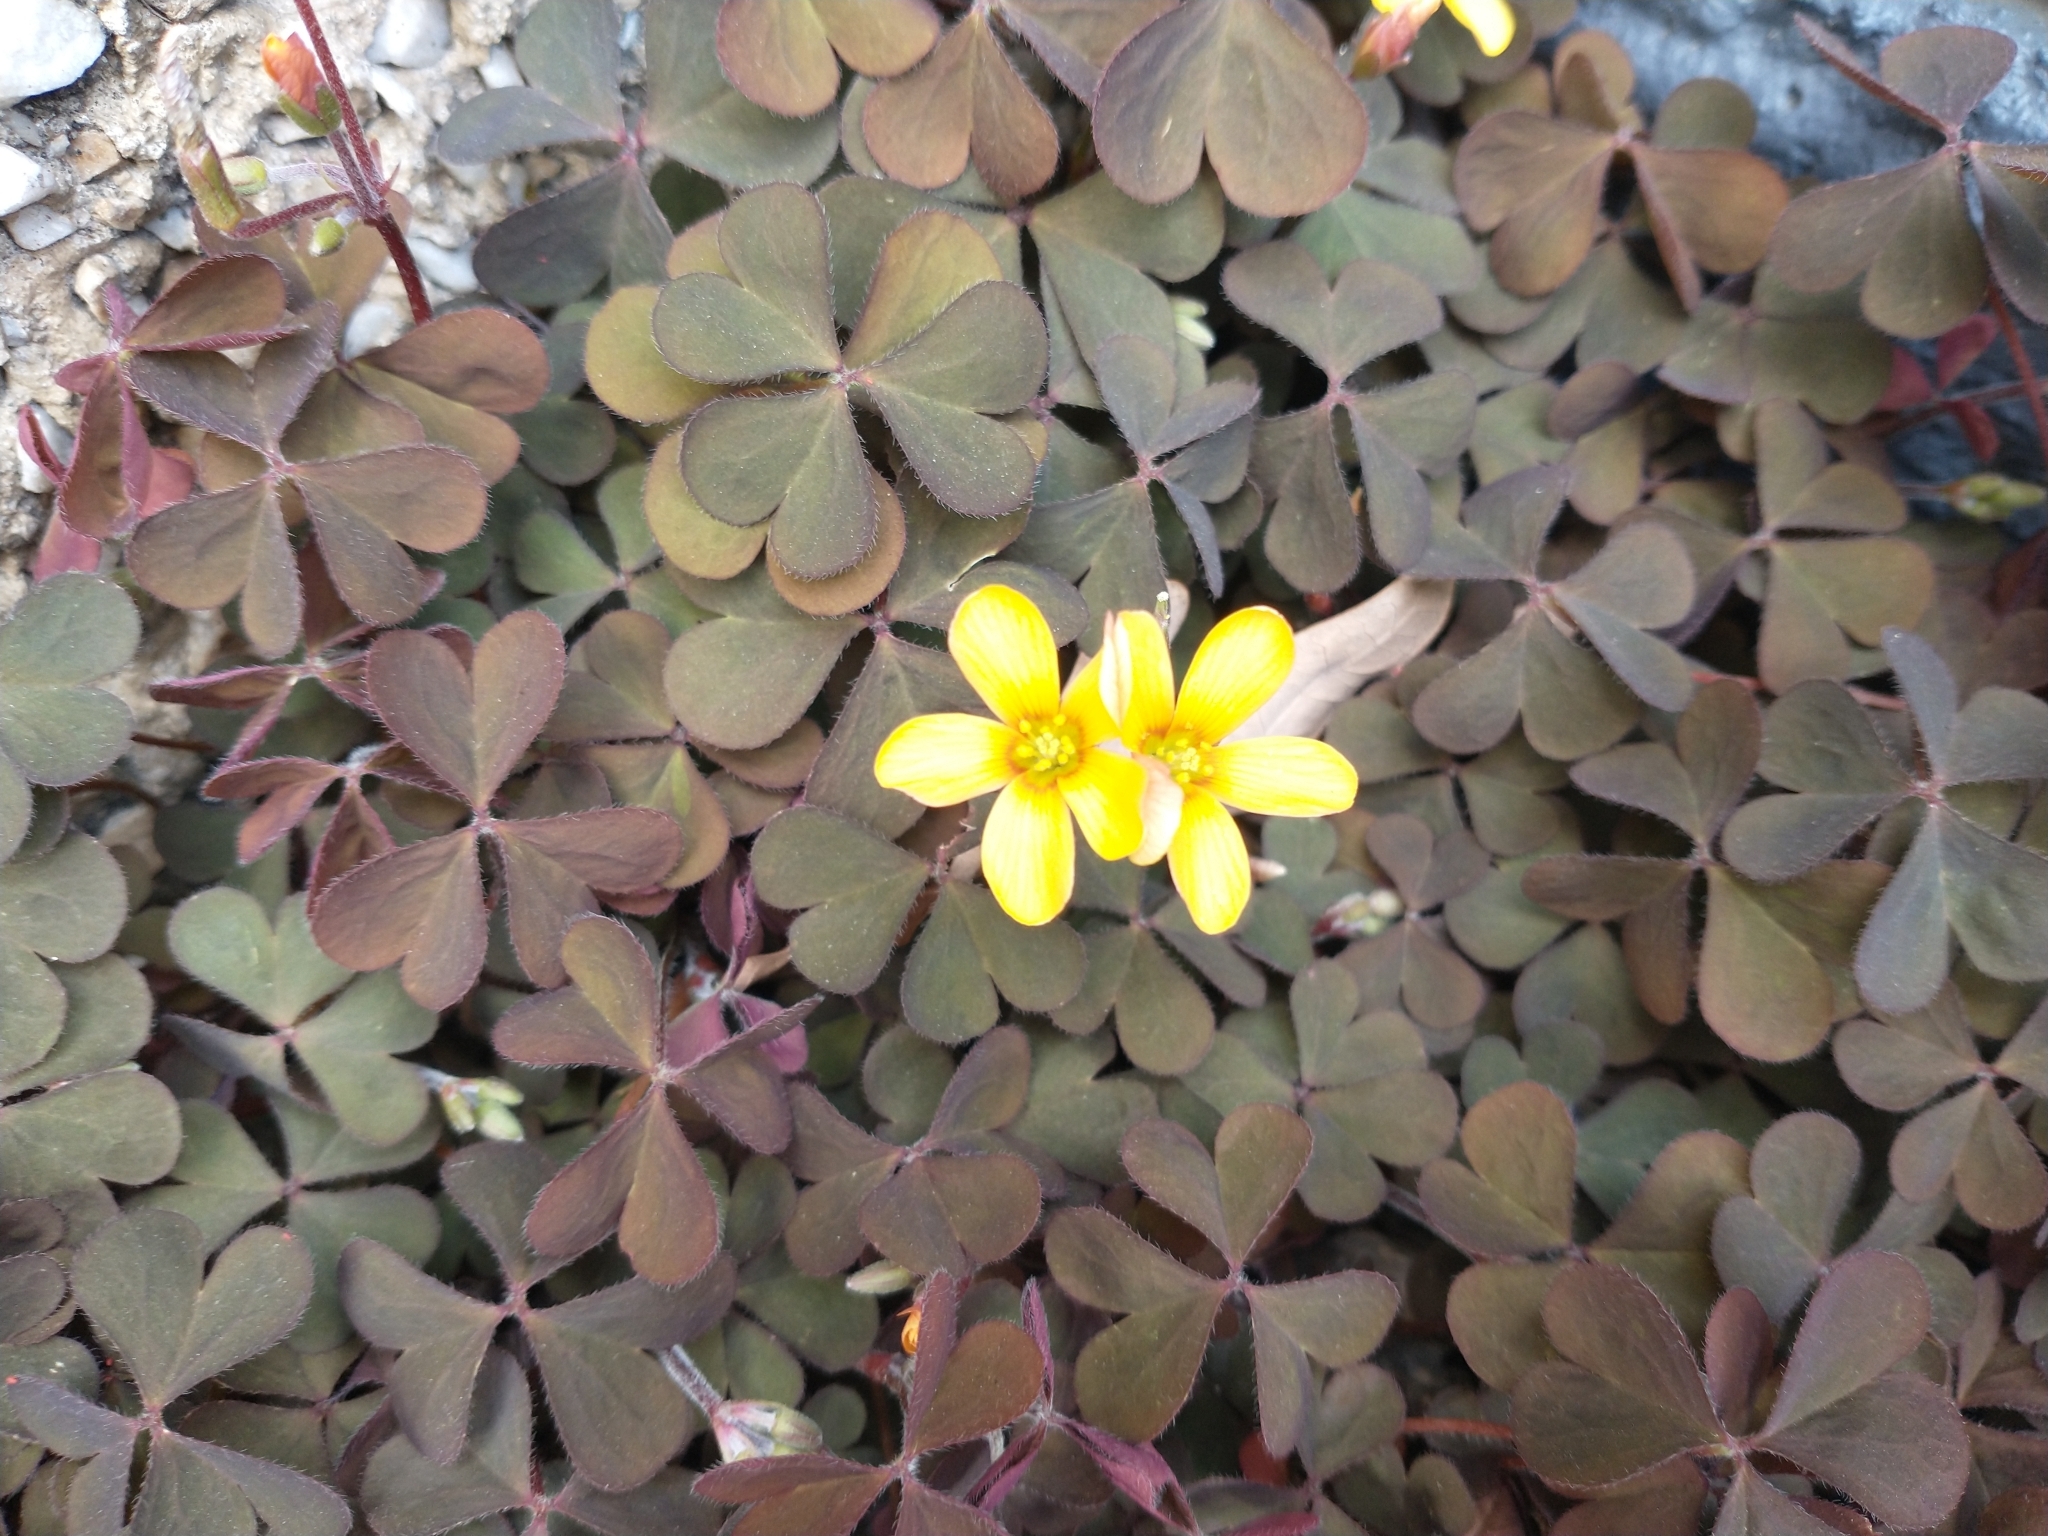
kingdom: Plantae
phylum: Tracheophyta
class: Magnoliopsida
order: Oxalidales
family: Oxalidaceae
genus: Oxalis
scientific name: Oxalis corniculata
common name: Procumbent yellow-sorrel
